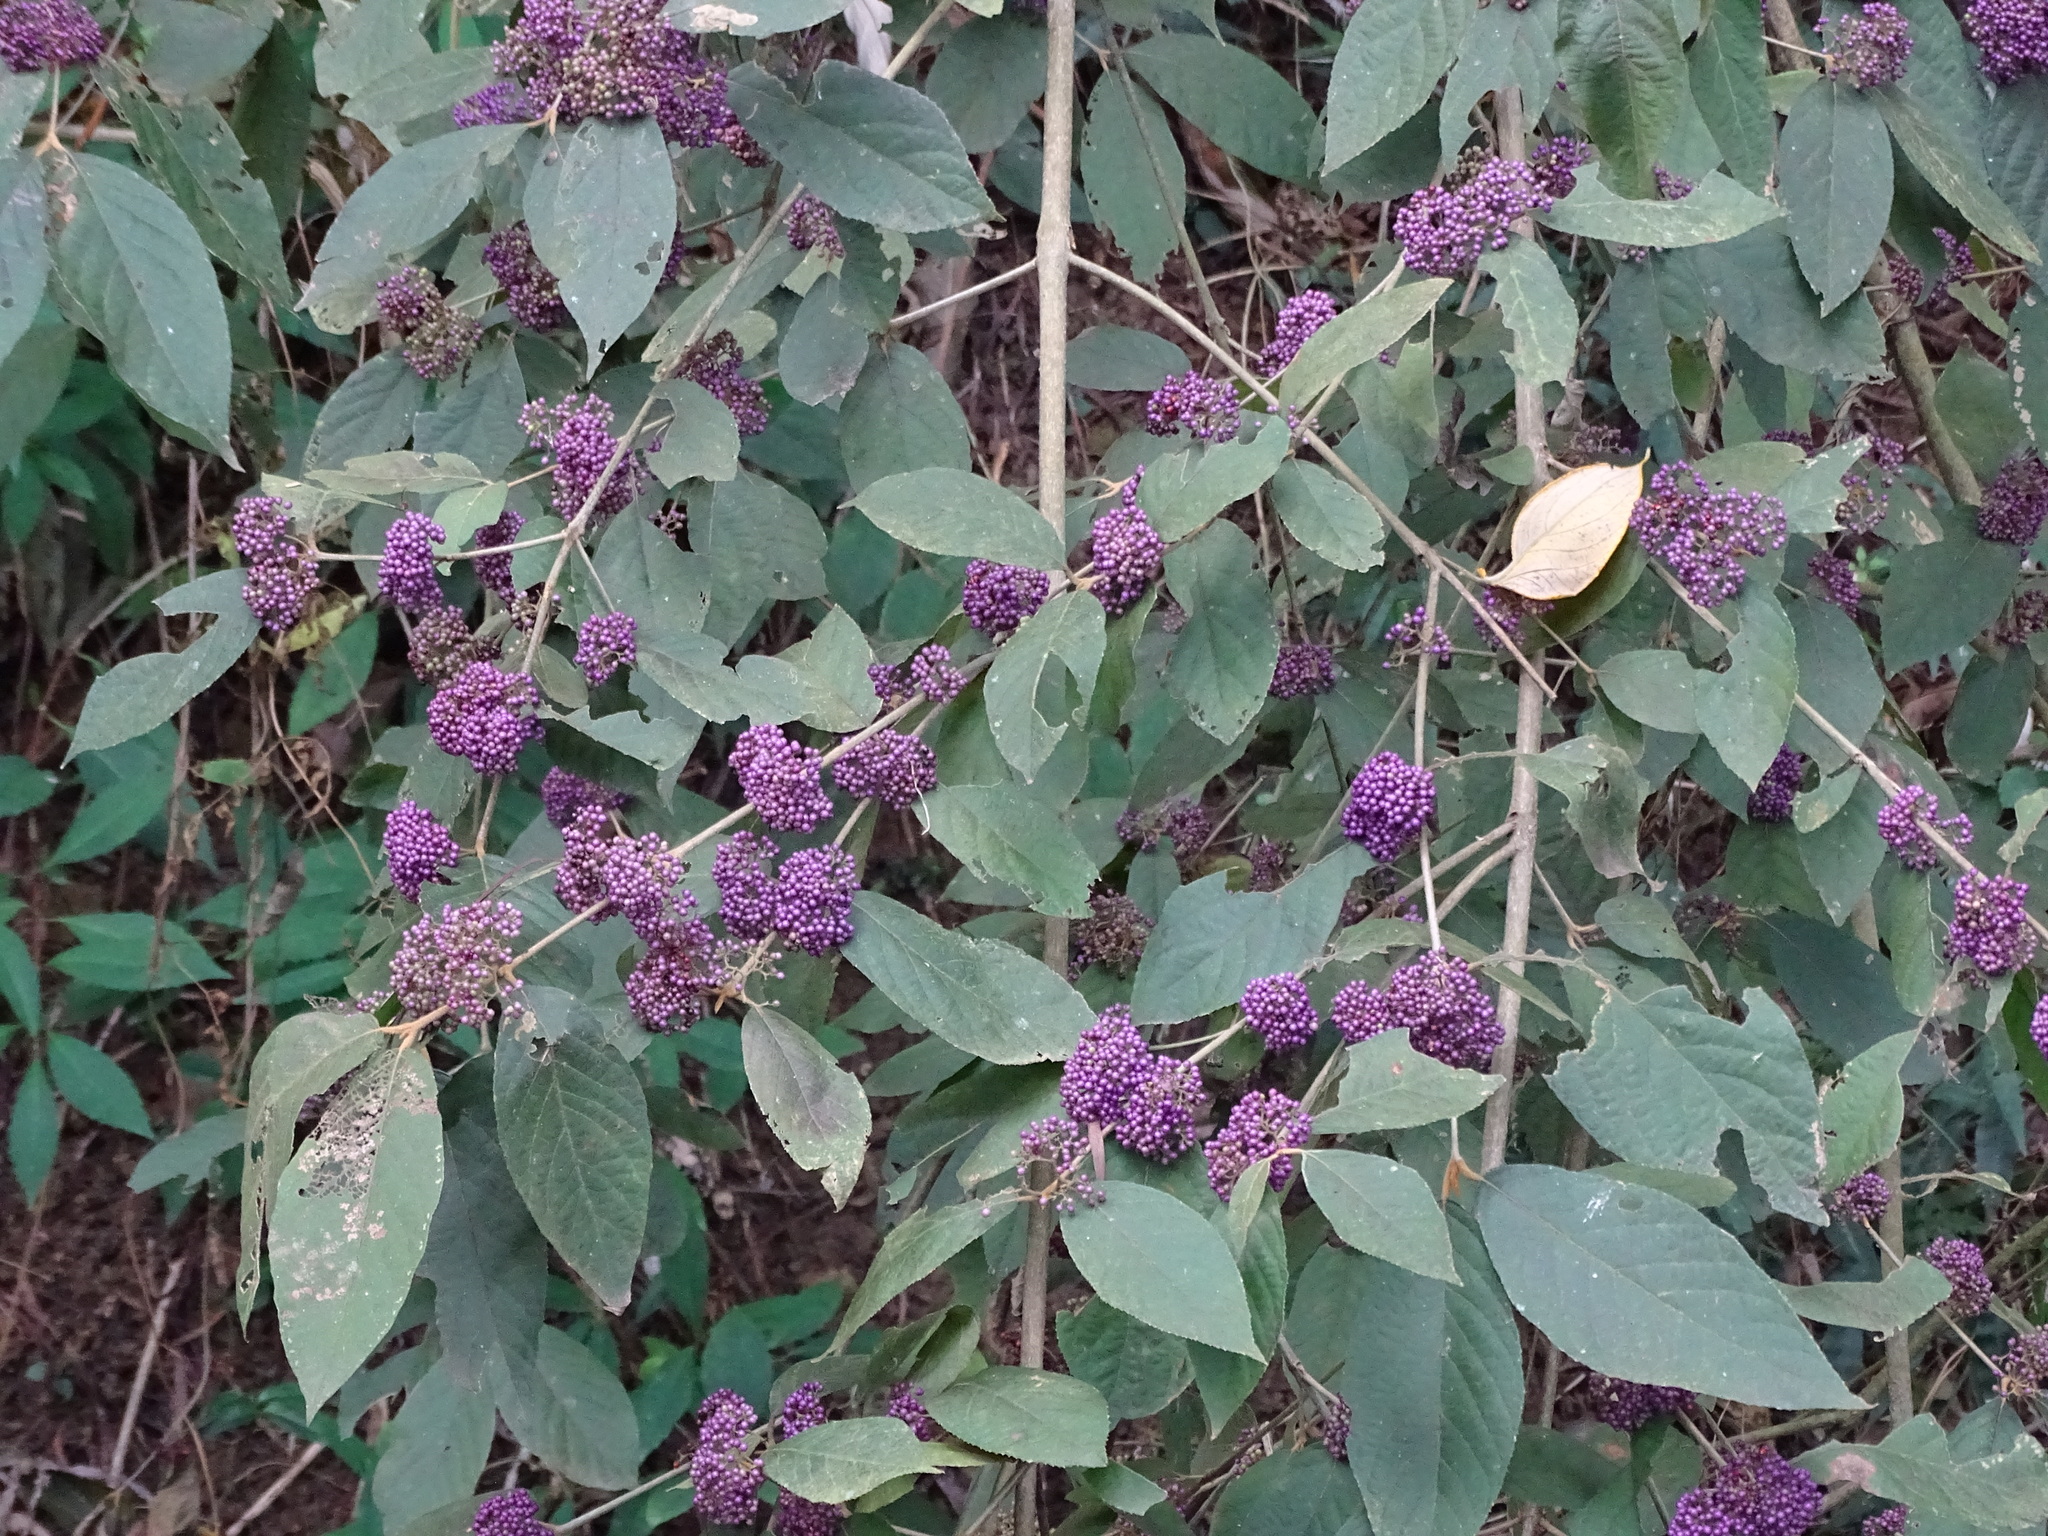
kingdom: Plantae
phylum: Tracheophyta
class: Magnoliopsida
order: Lamiales
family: Lamiaceae
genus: Callicarpa
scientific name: Callicarpa pedunculata
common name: Velvetleaf
